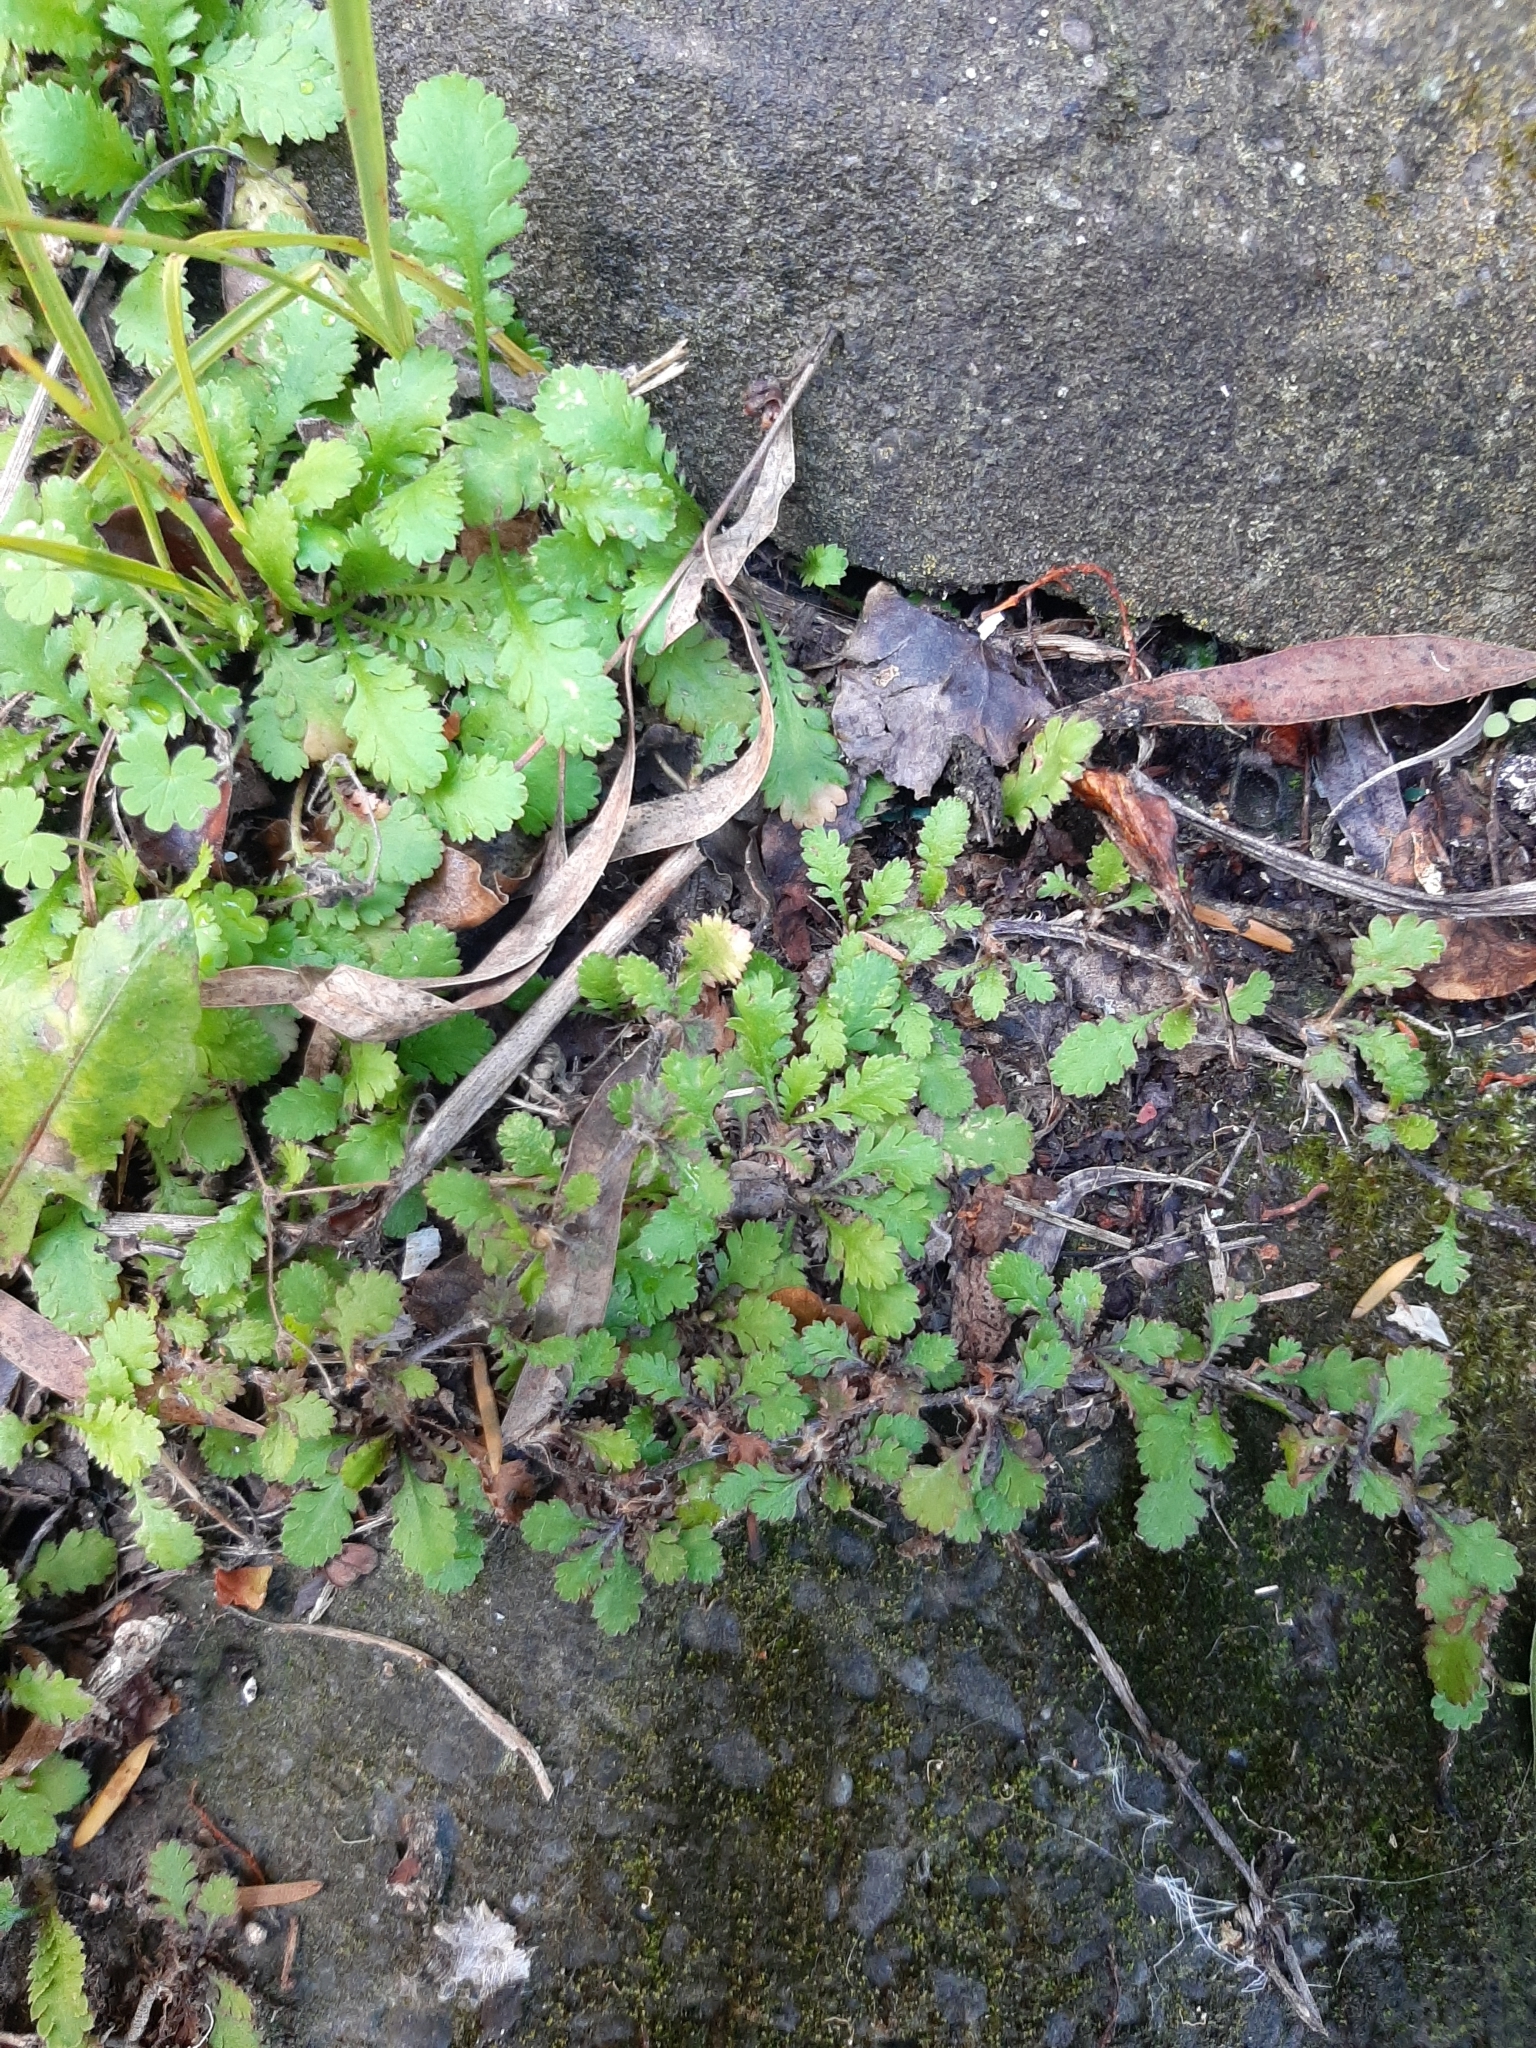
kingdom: Plantae
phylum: Tracheophyta
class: Magnoliopsida
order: Asterales
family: Asteraceae
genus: Leptinella
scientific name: Leptinella dioica
